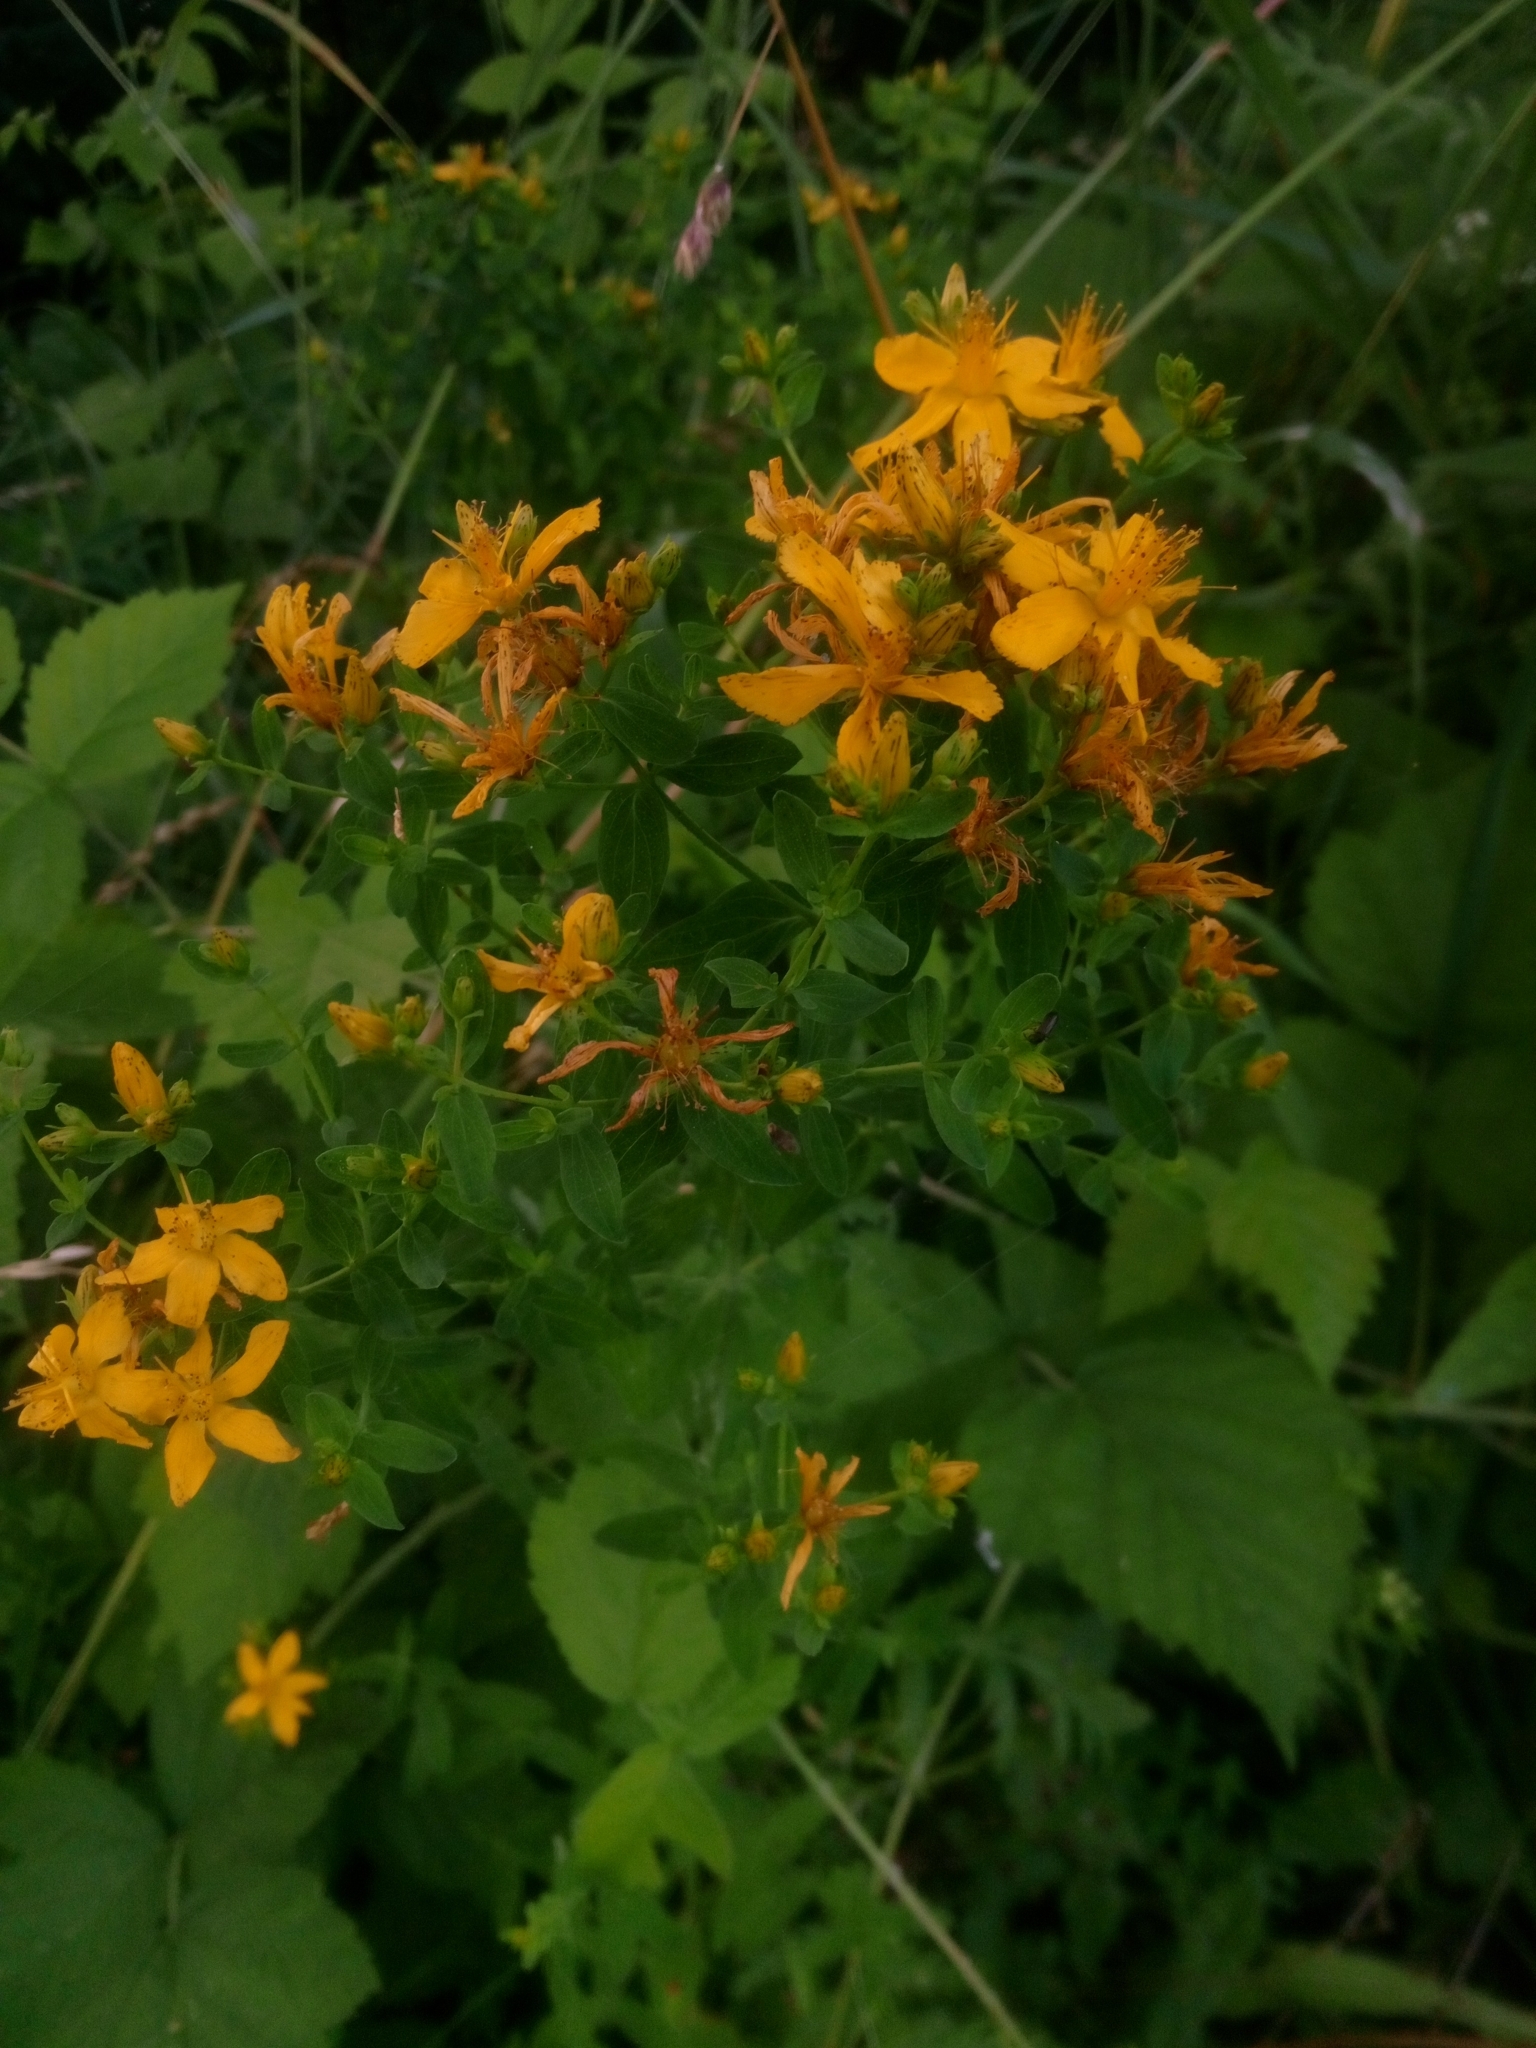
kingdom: Plantae
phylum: Tracheophyta
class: Magnoliopsida
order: Malpighiales
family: Hypericaceae
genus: Hypericum
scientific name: Hypericum perforatum
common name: Common st. johnswort
